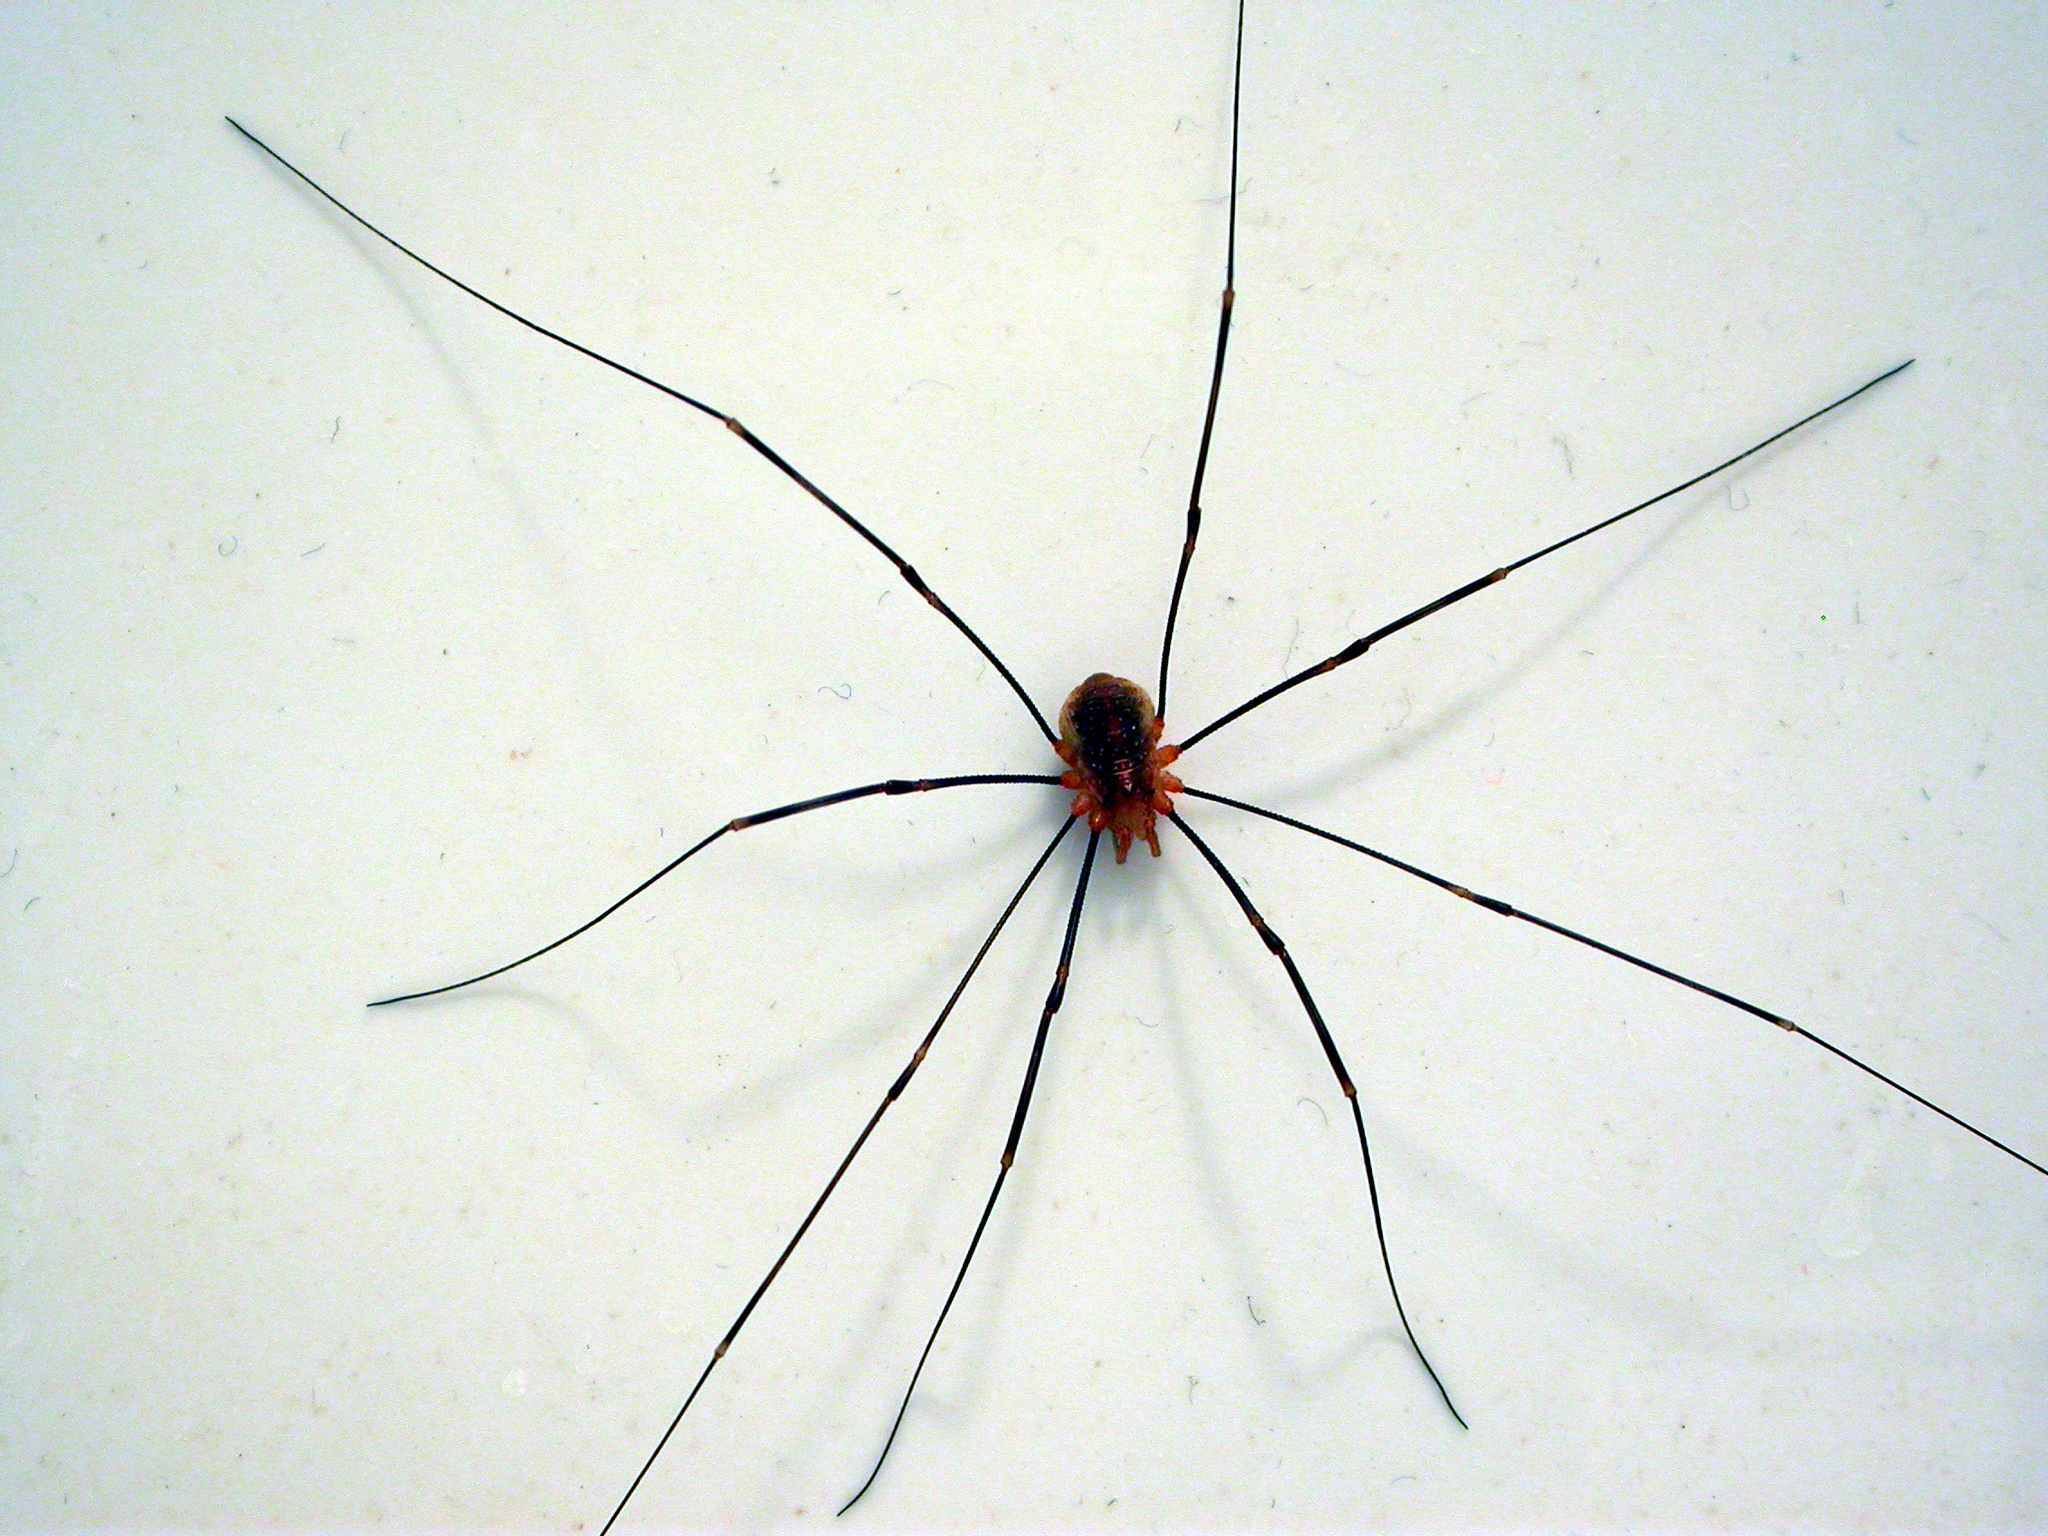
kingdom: Animalia
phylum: Arthropoda
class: Arachnida
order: Opiliones
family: Phalangiidae
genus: Opilio
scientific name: Opilio canestrinii
